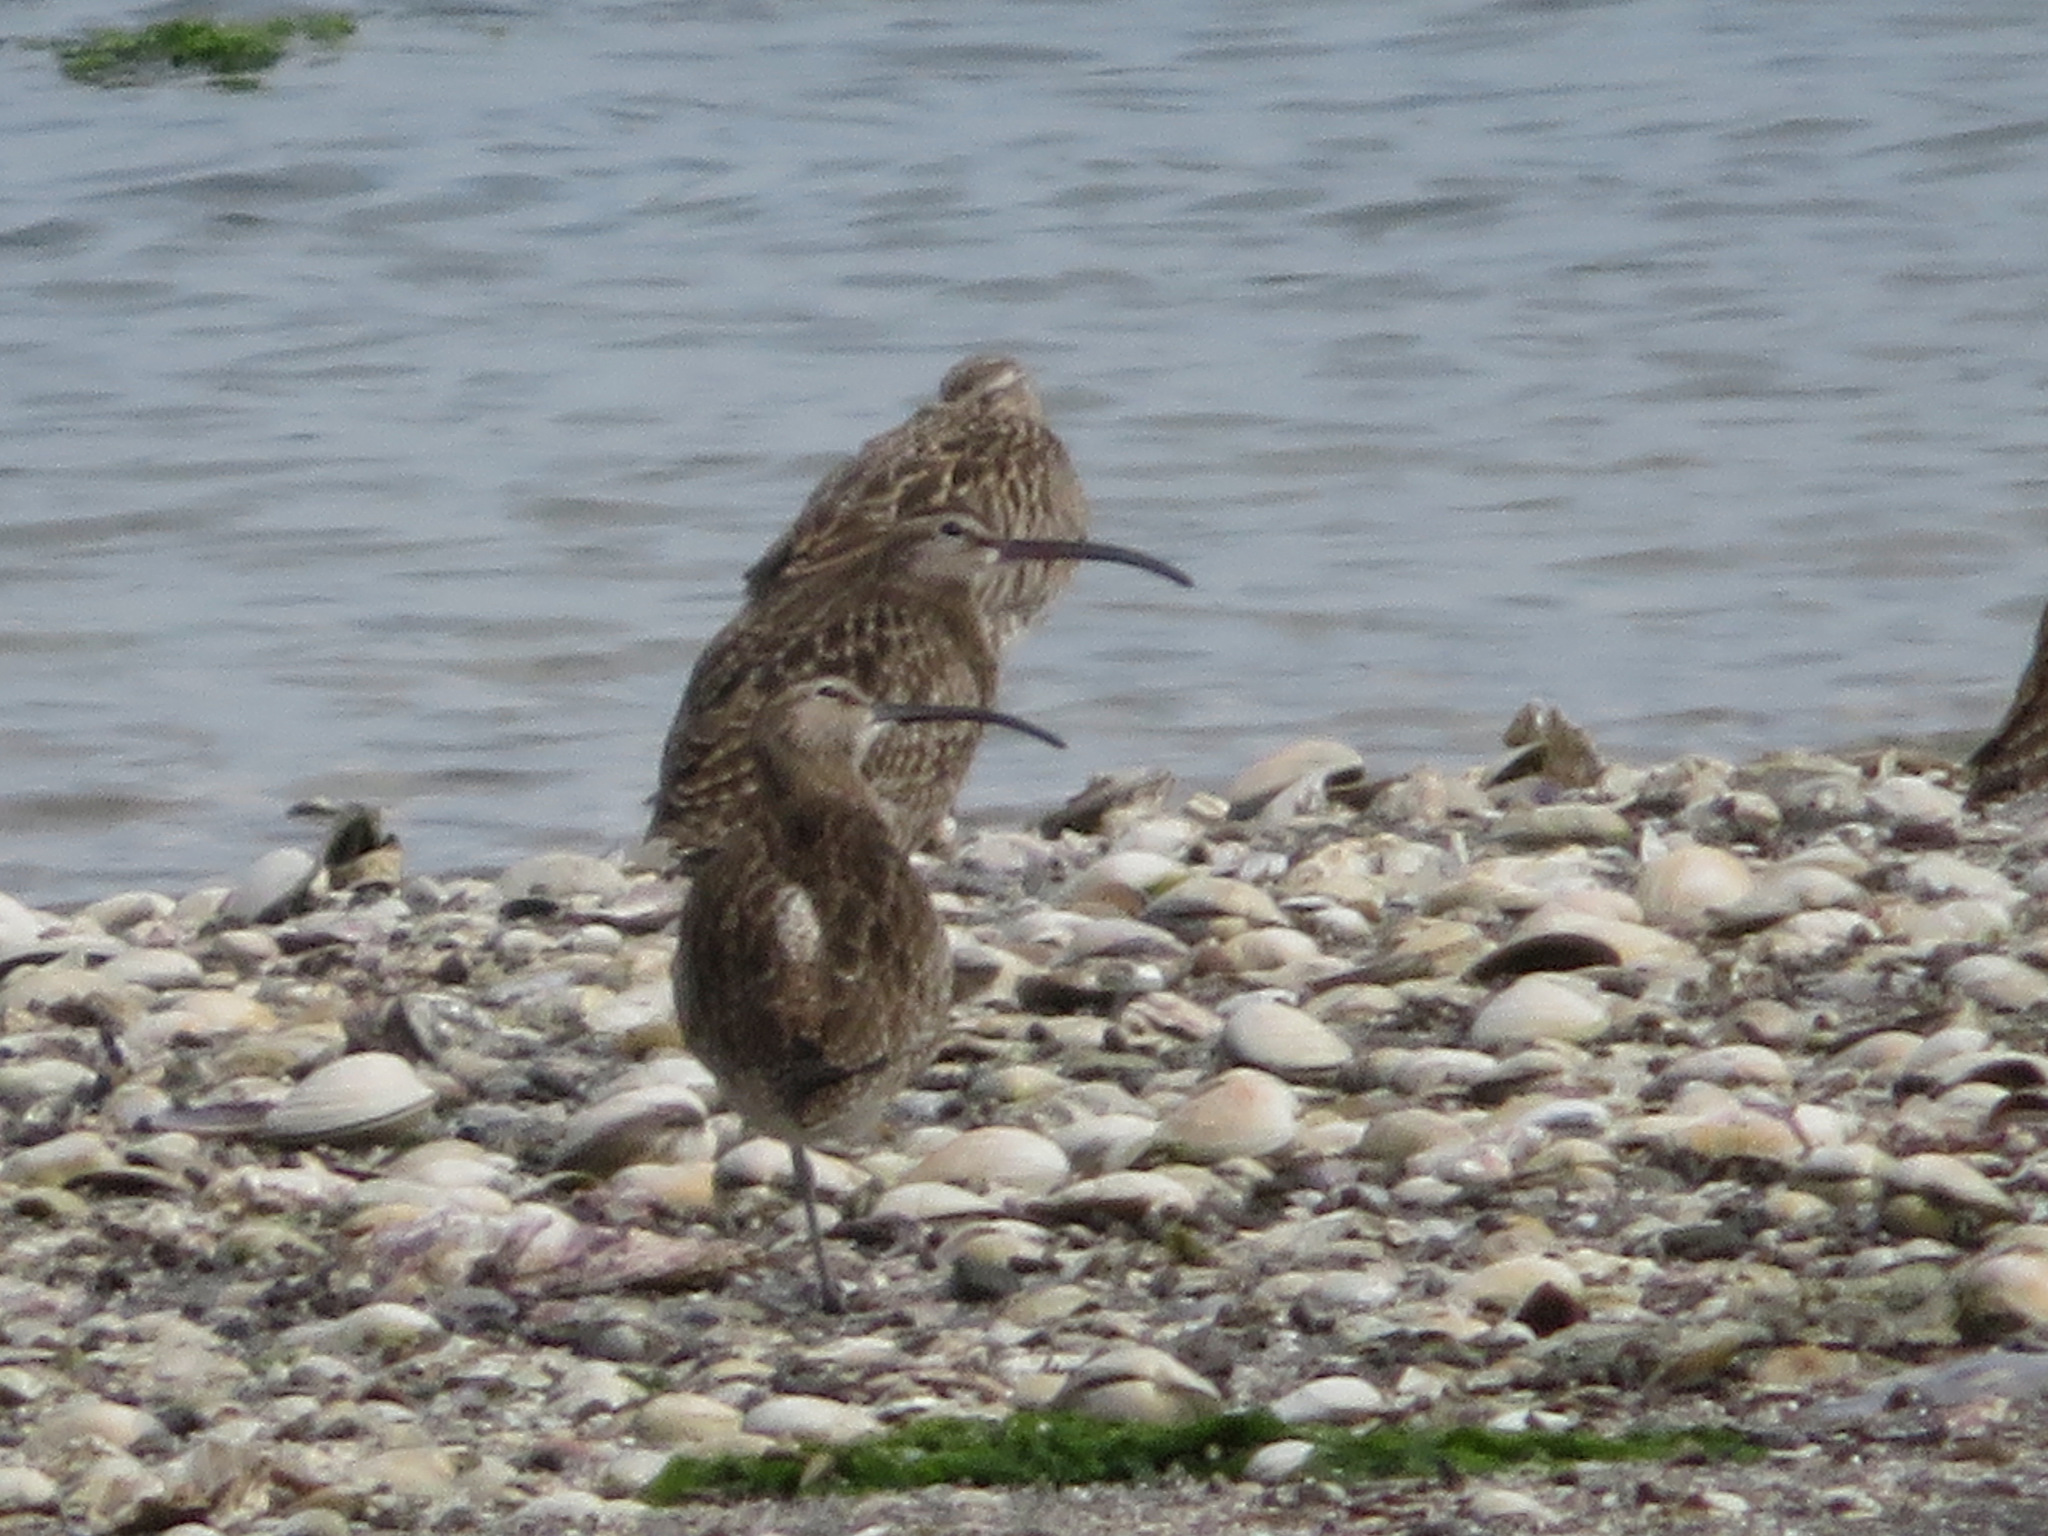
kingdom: Animalia
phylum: Chordata
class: Aves
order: Charadriiformes
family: Scolopacidae
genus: Numenius
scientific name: Numenius phaeopus
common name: Whimbrel
